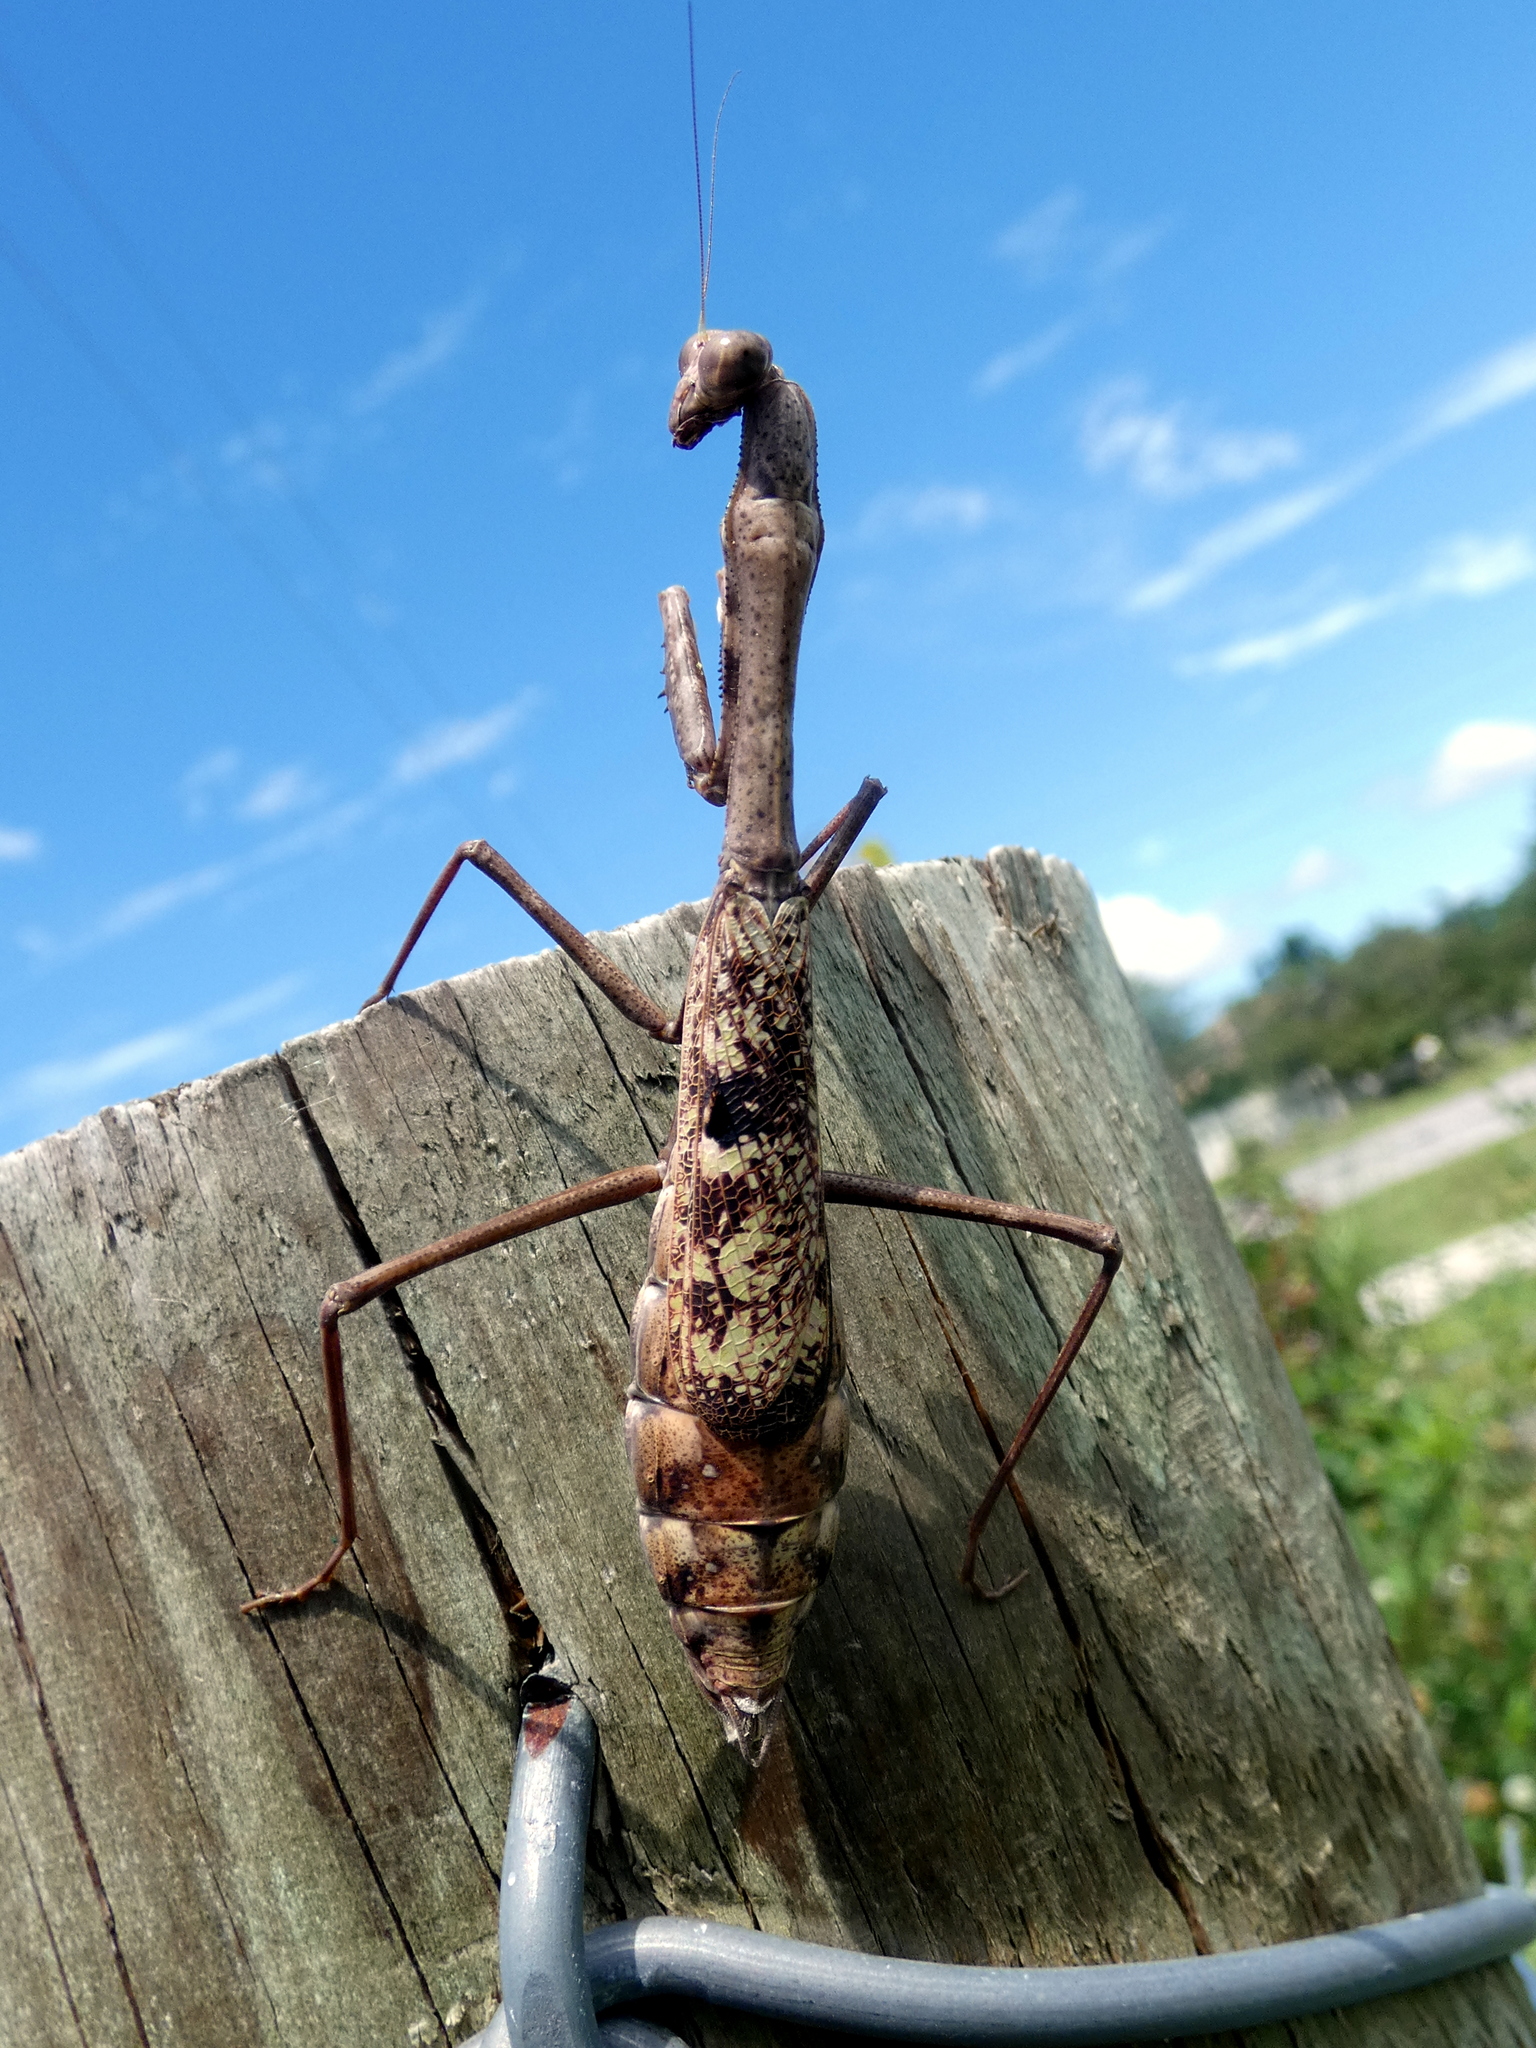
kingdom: Animalia
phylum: Arthropoda
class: Insecta
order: Mantodea
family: Mantidae
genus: Stagmomantis
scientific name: Stagmomantis carolina
